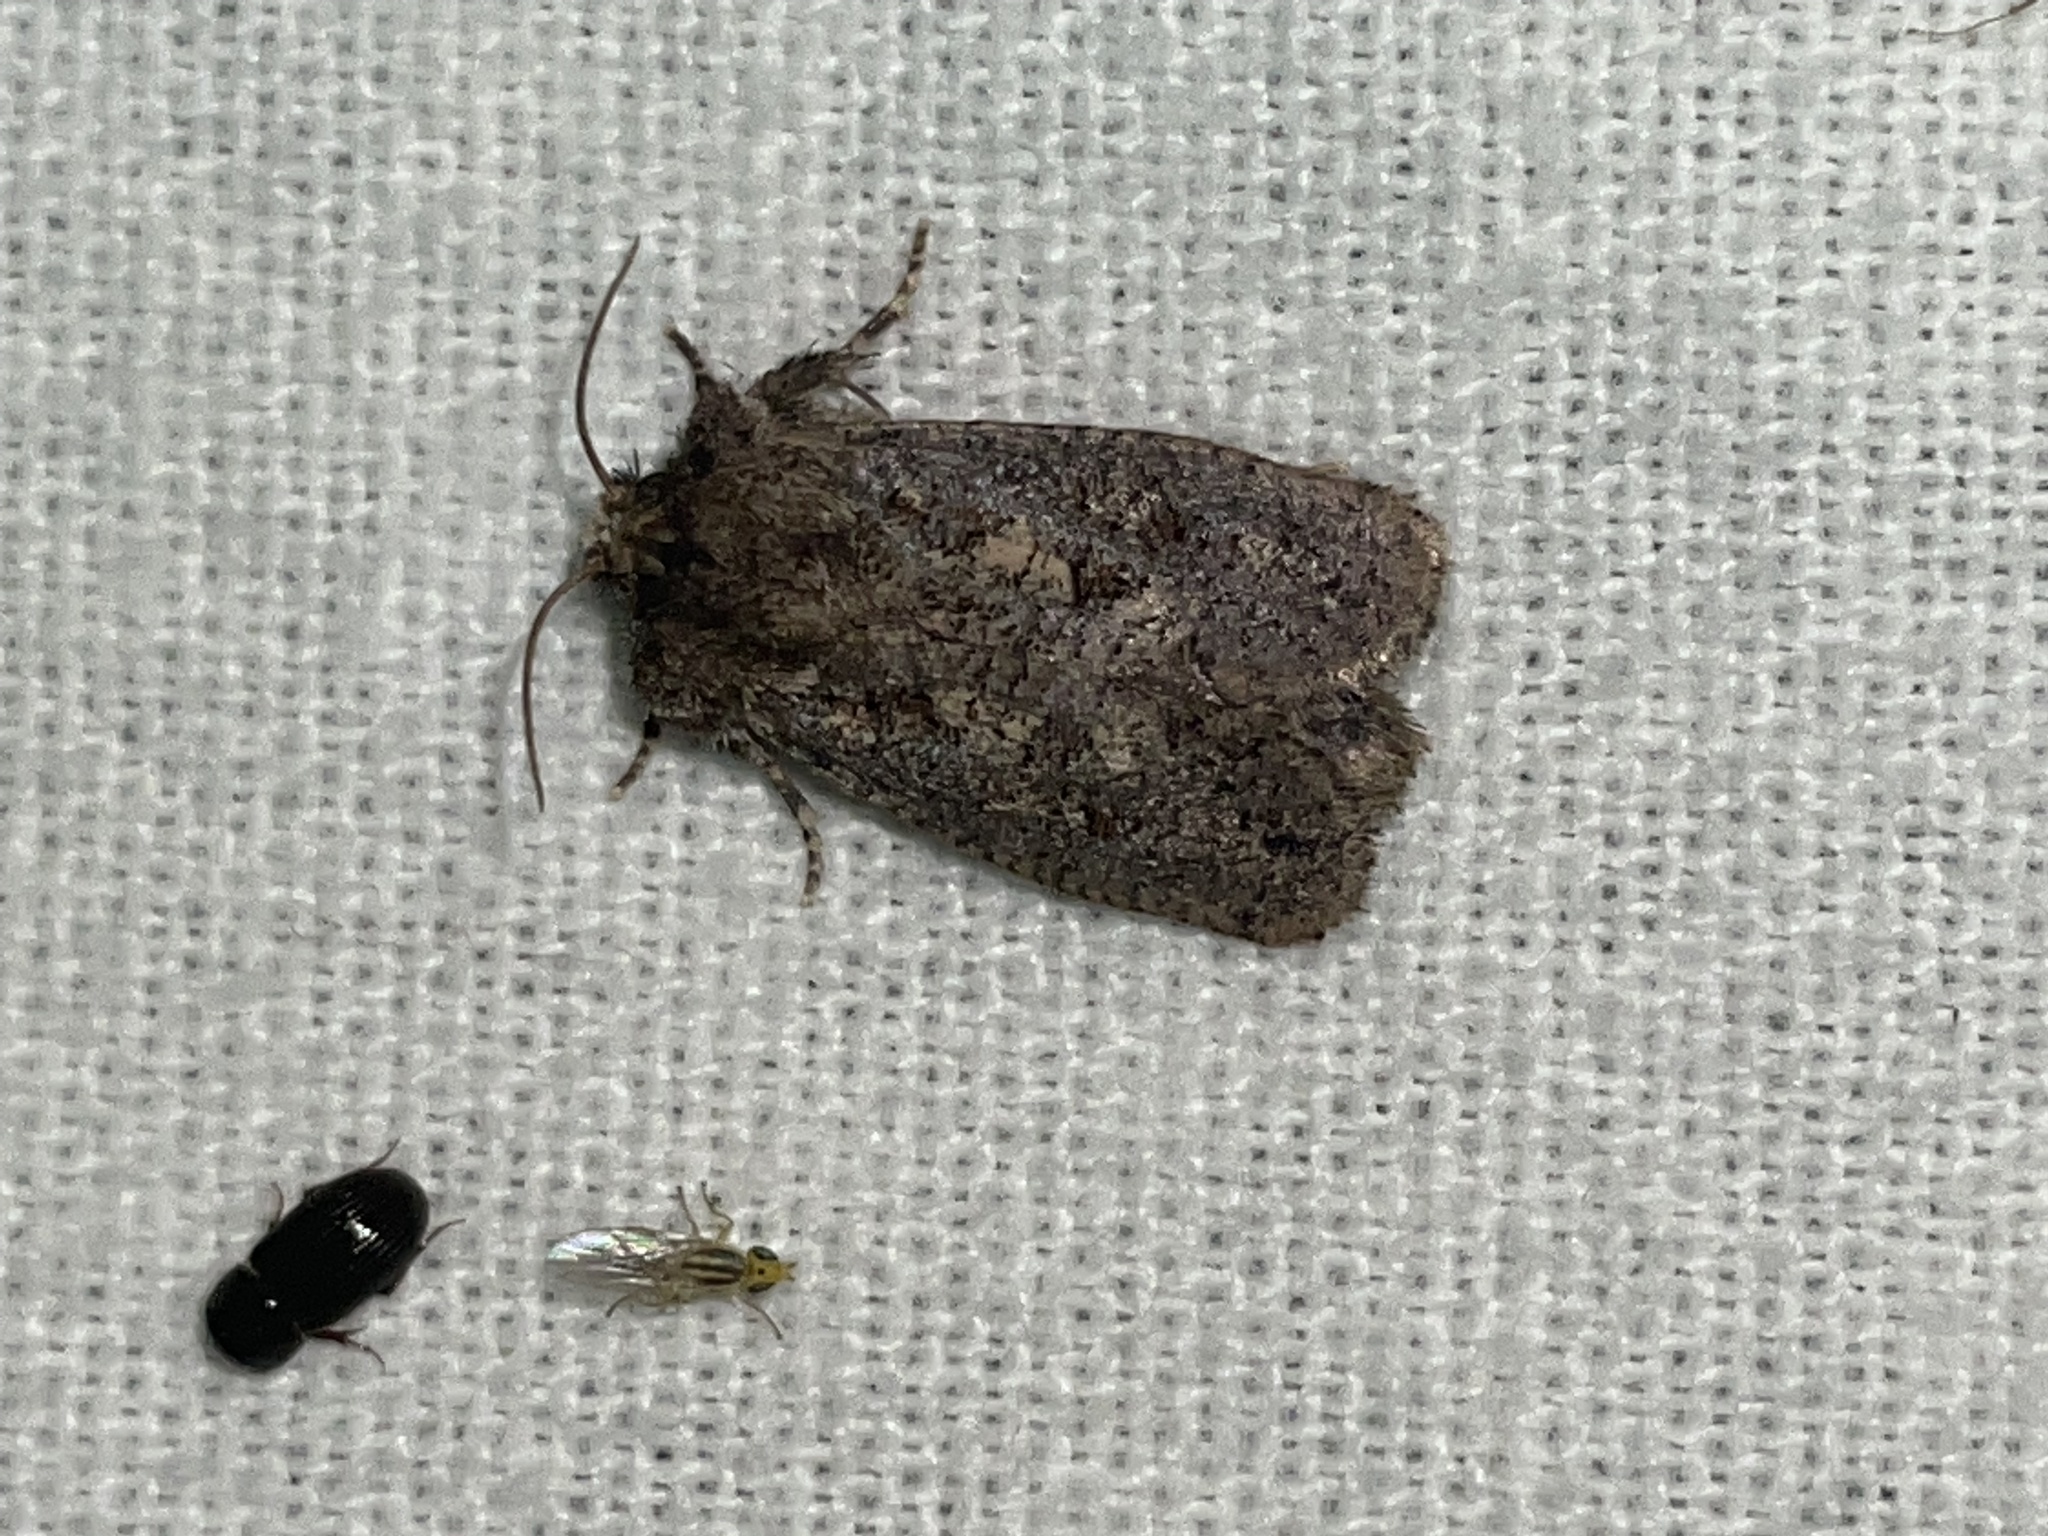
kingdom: Animalia
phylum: Arthropoda
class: Insecta
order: Lepidoptera
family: Tineidae
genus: Acrolophus
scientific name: Acrolophus arcanella
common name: Arcane grass tubeworm moth
